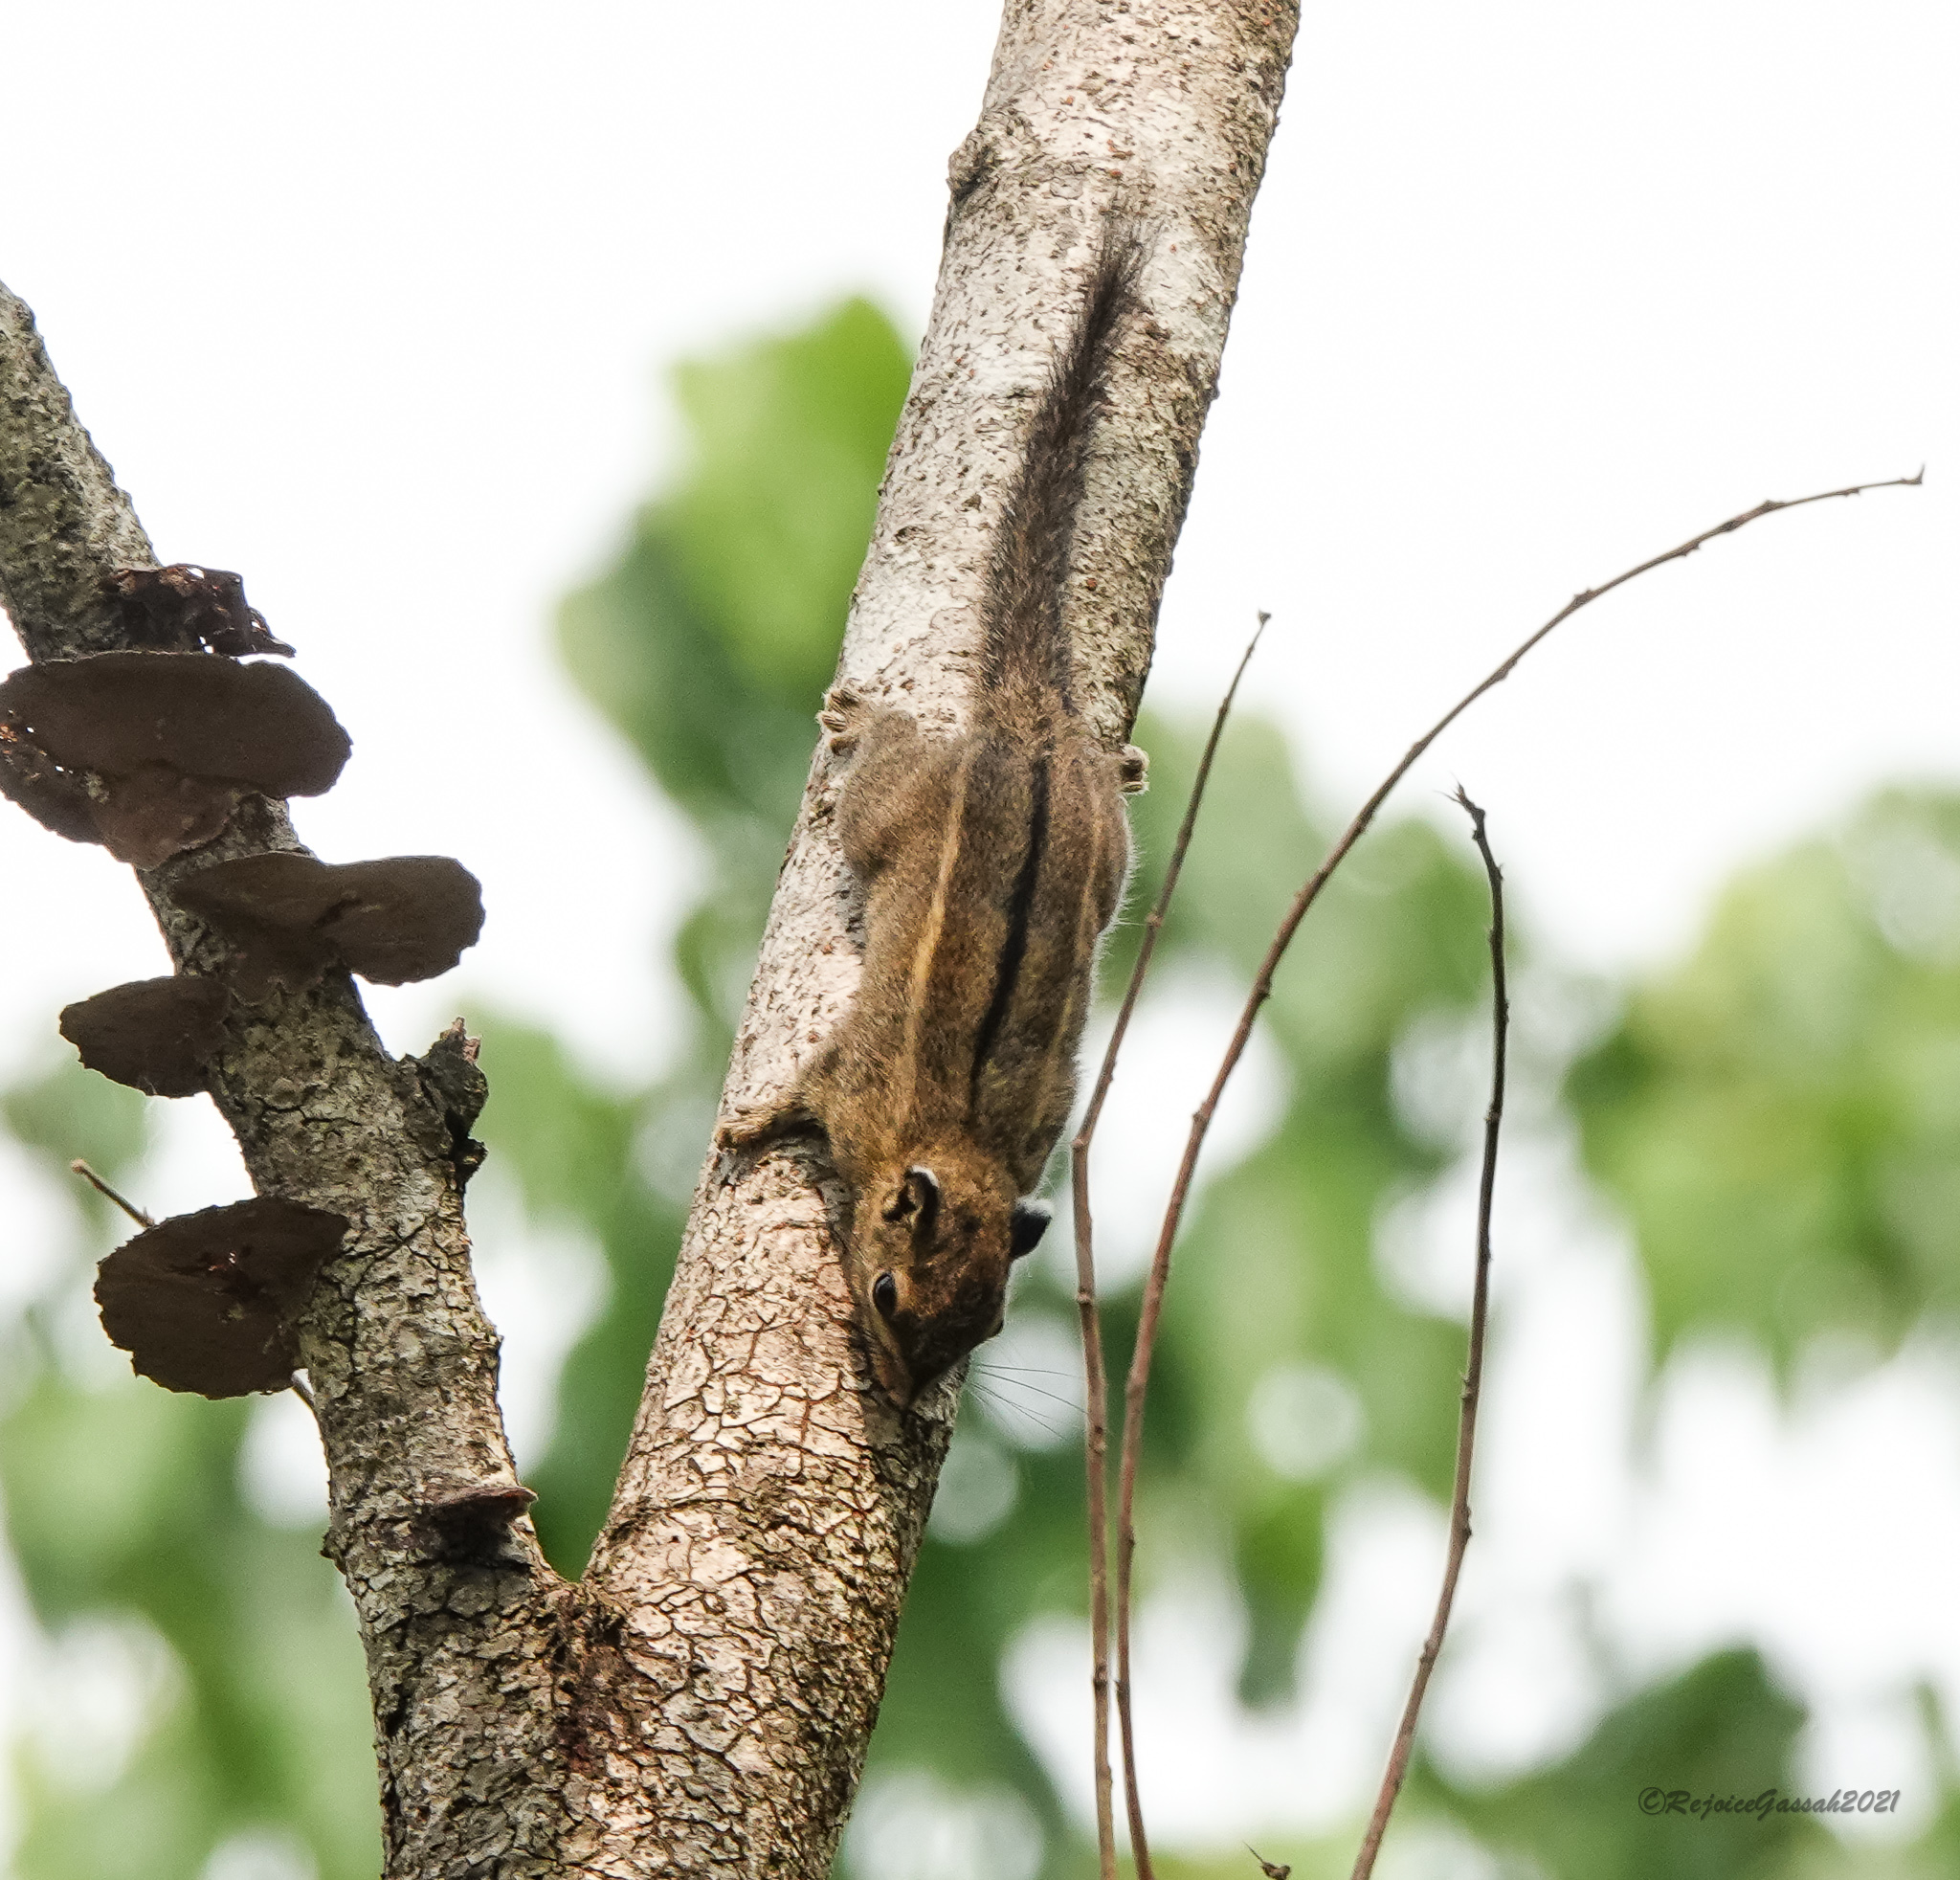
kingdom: Animalia
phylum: Chordata
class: Mammalia
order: Rodentia
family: Sciuridae
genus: Tamiops
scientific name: Tamiops mcclellandii
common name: Himalayan striped squirrel
